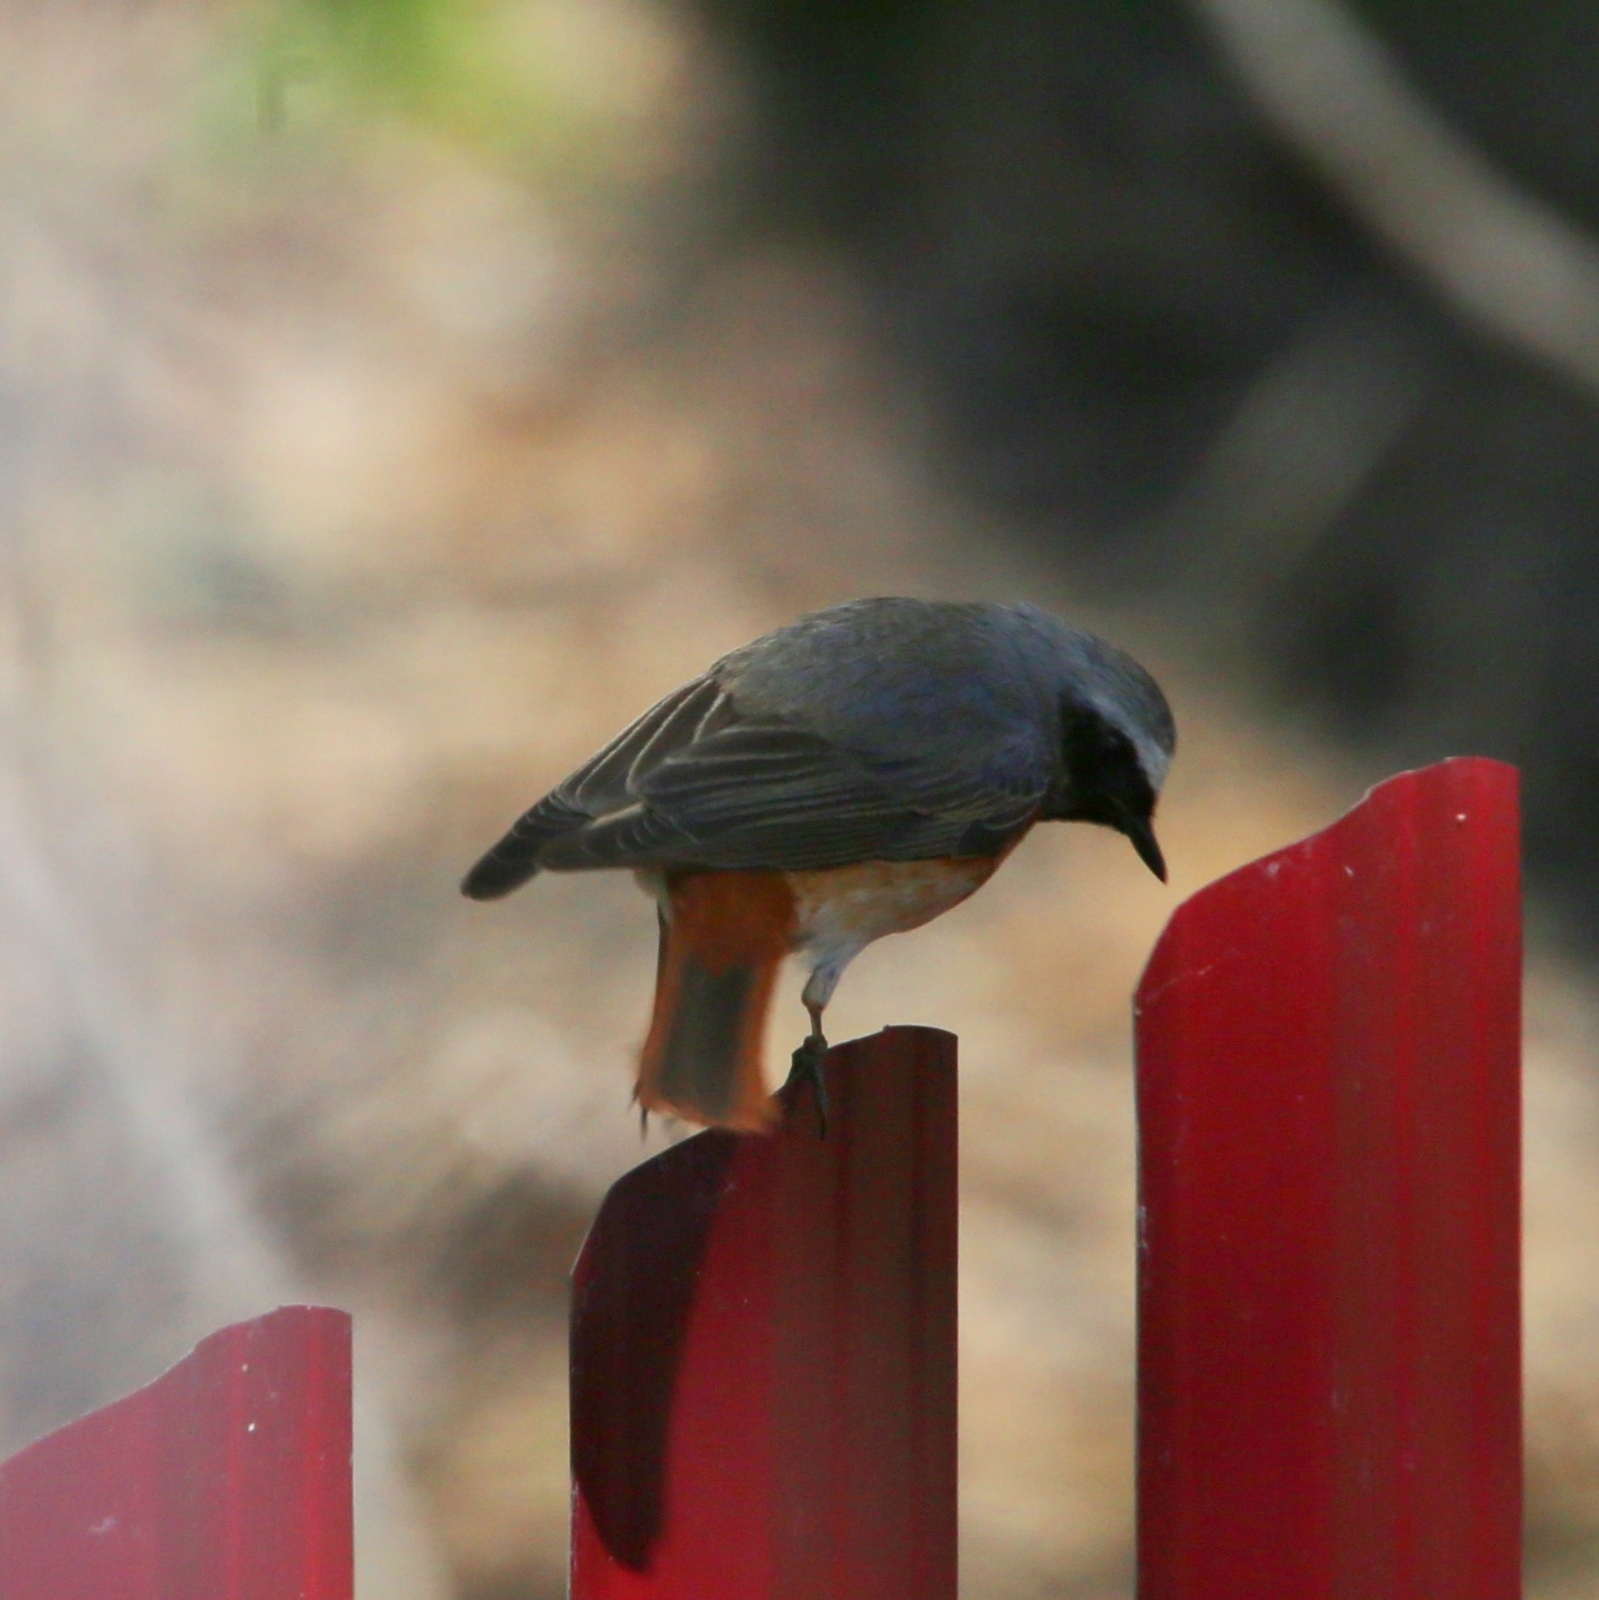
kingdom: Animalia
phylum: Chordata
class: Aves
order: Passeriformes
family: Muscicapidae
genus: Phoenicurus
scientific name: Phoenicurus phoenicurus
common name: Common redstart
